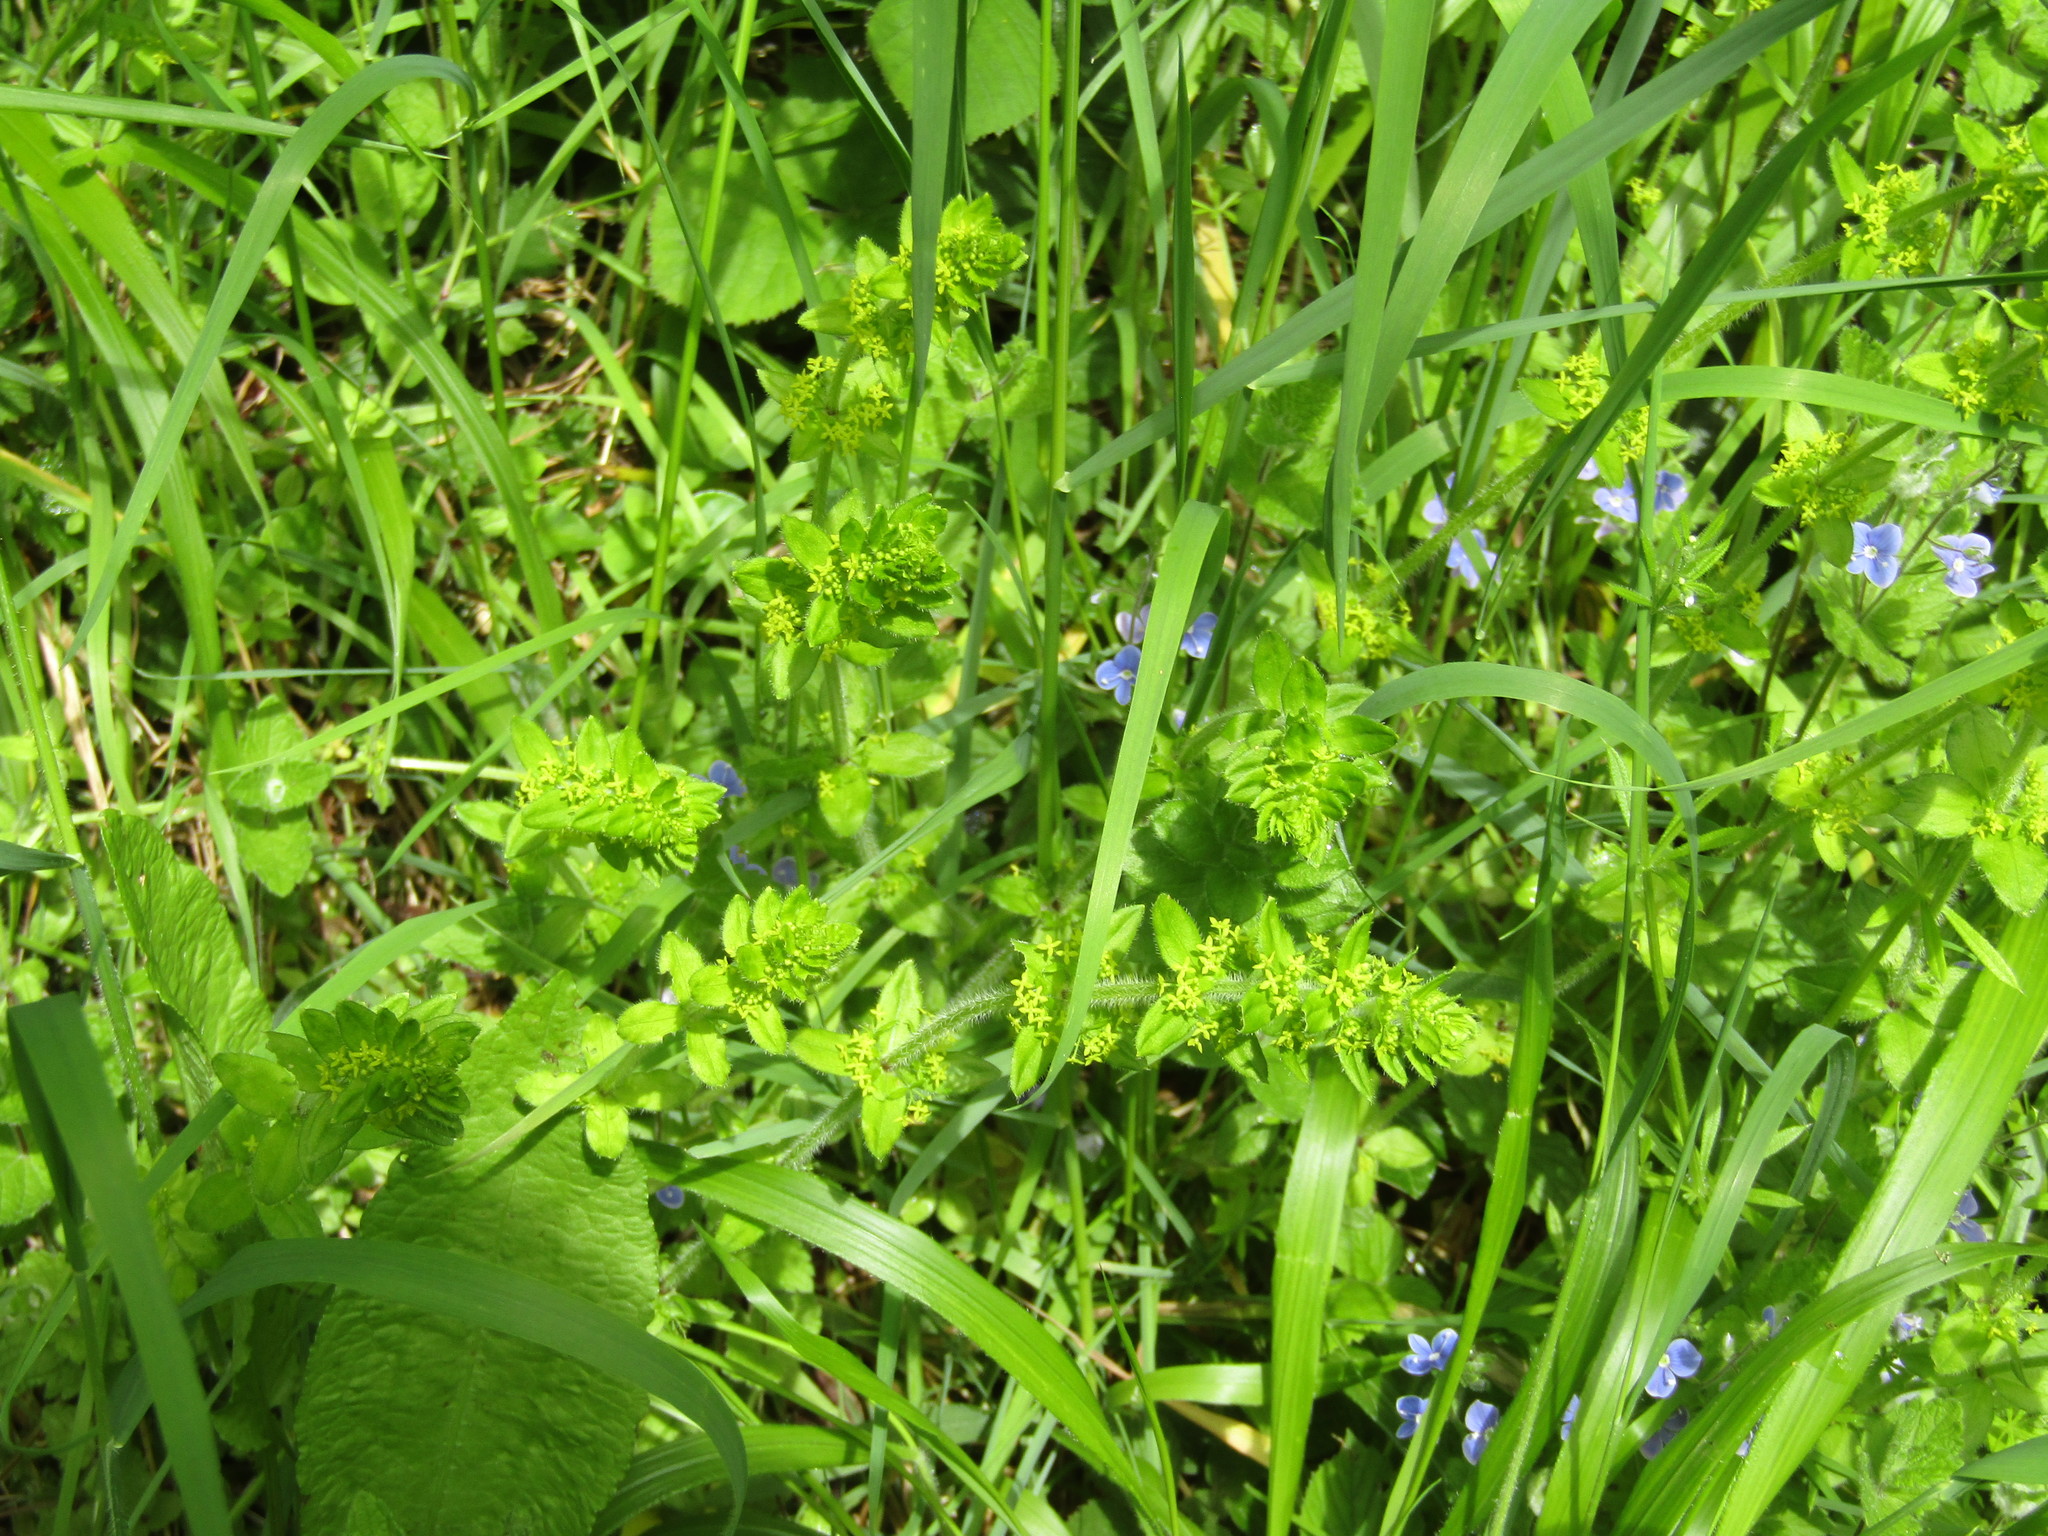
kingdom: Plantae
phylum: Tracheophyta
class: Magnoliopsida
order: Gentianales
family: Rubiaceae
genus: Cruciata
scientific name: Cruciata laevipes
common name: Crosswort
